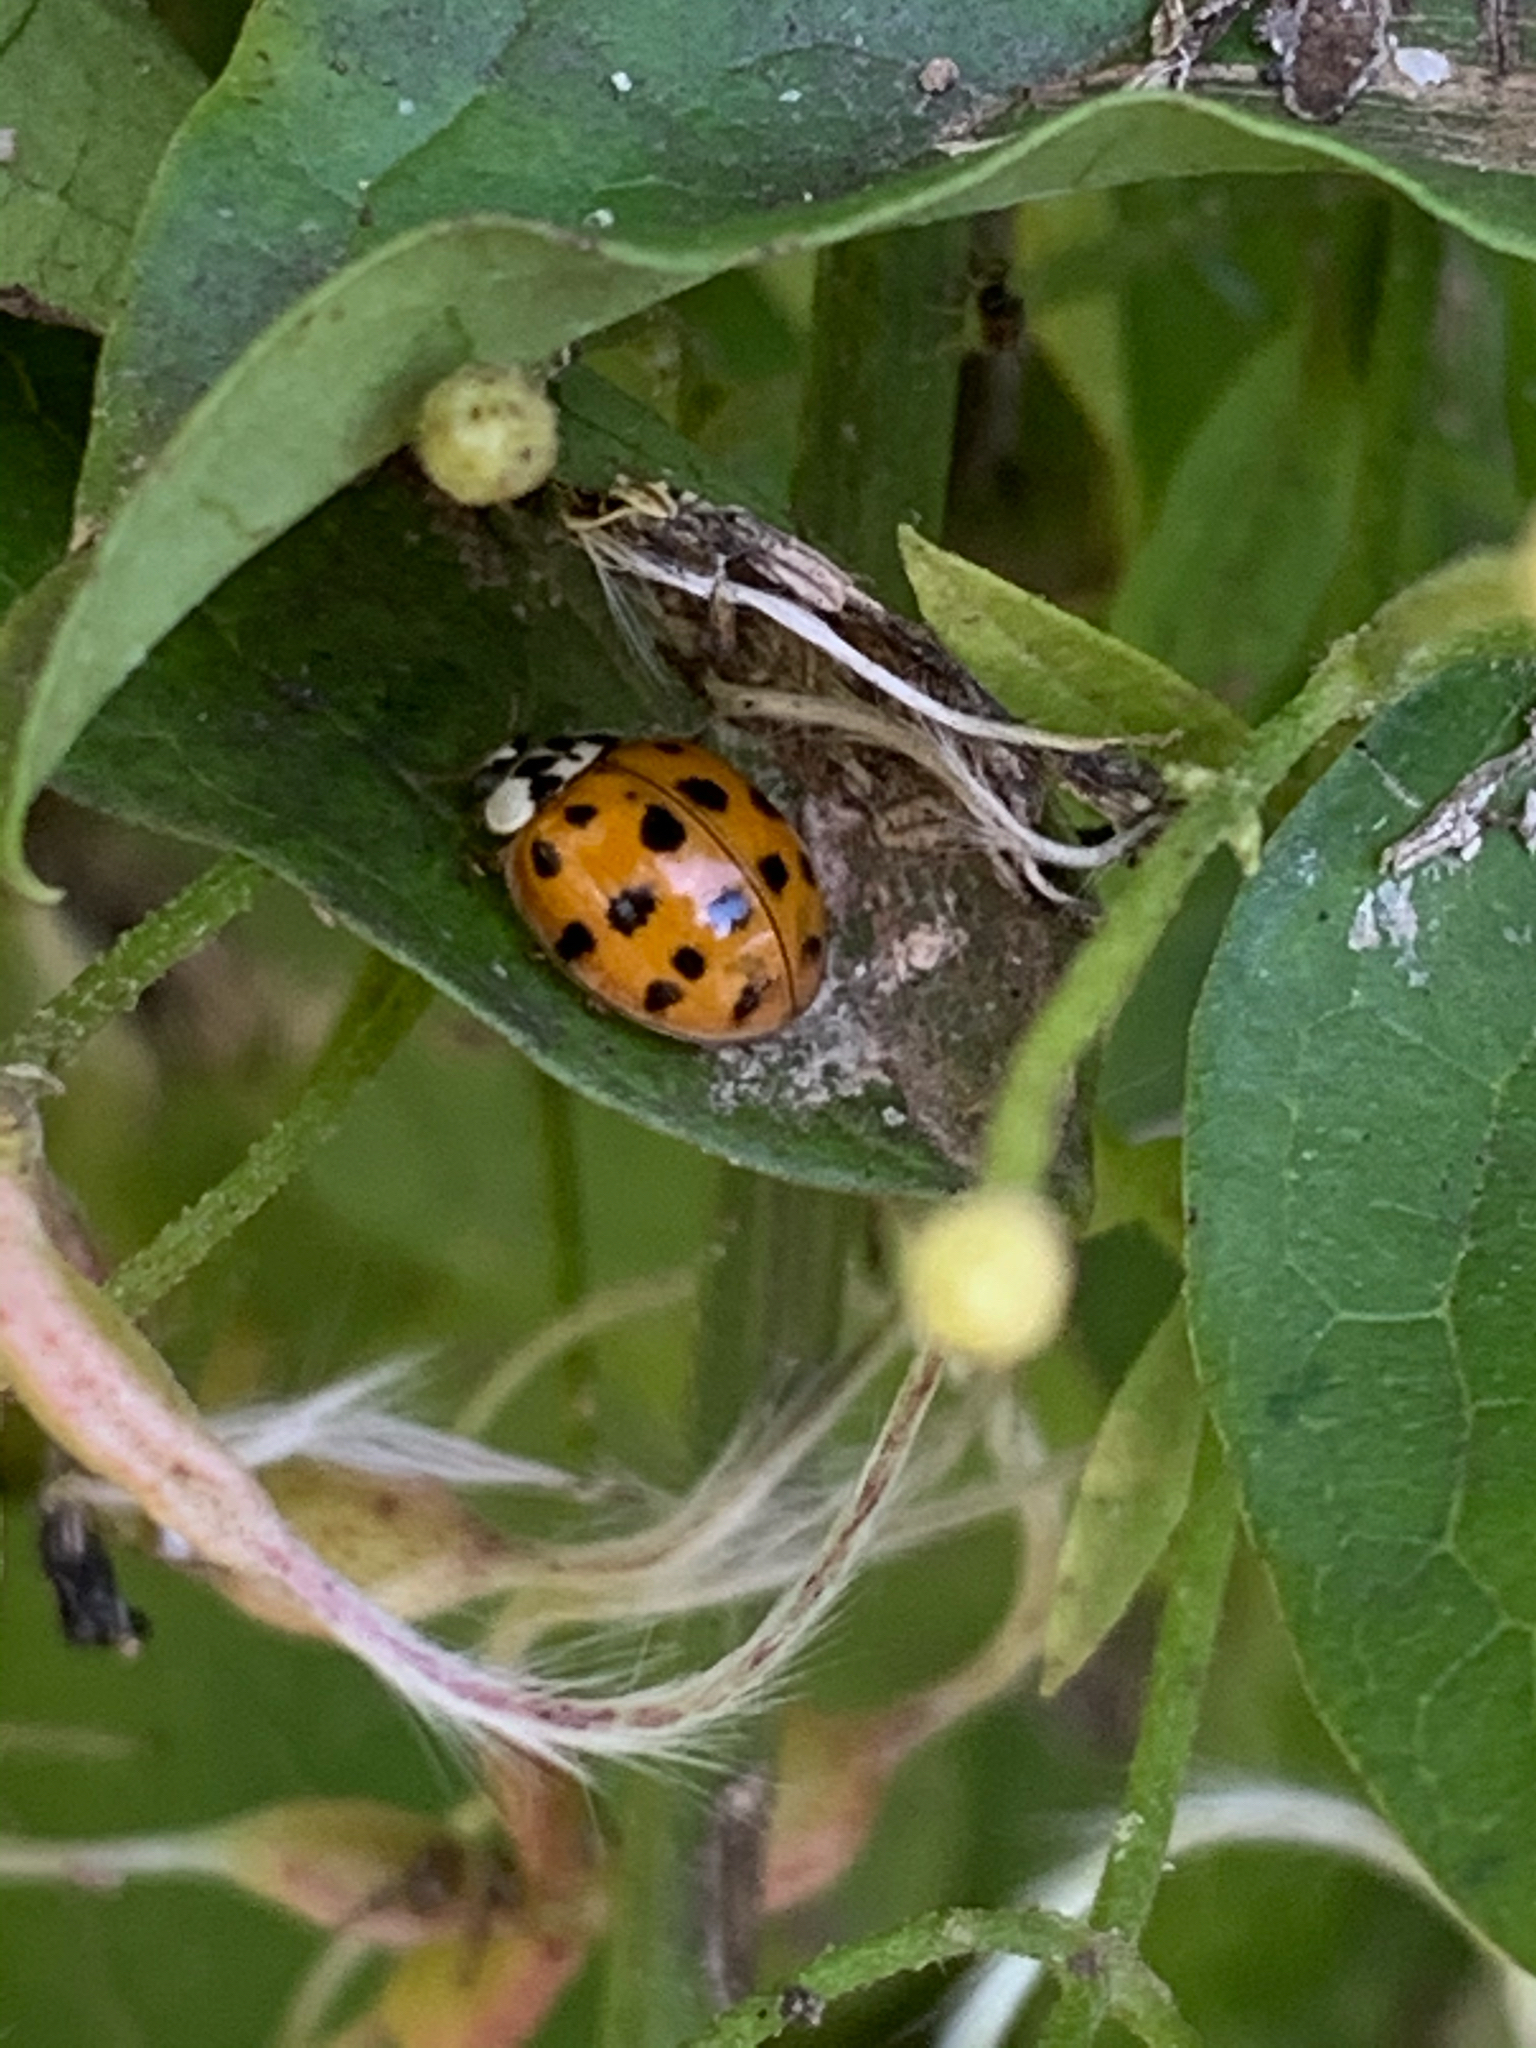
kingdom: Animalia
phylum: Arthropoda
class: Insecta
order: Coleoptera
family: Coccinellidae
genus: Harmonia
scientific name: Harmonia axyridis
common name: Harlequin ladybird
